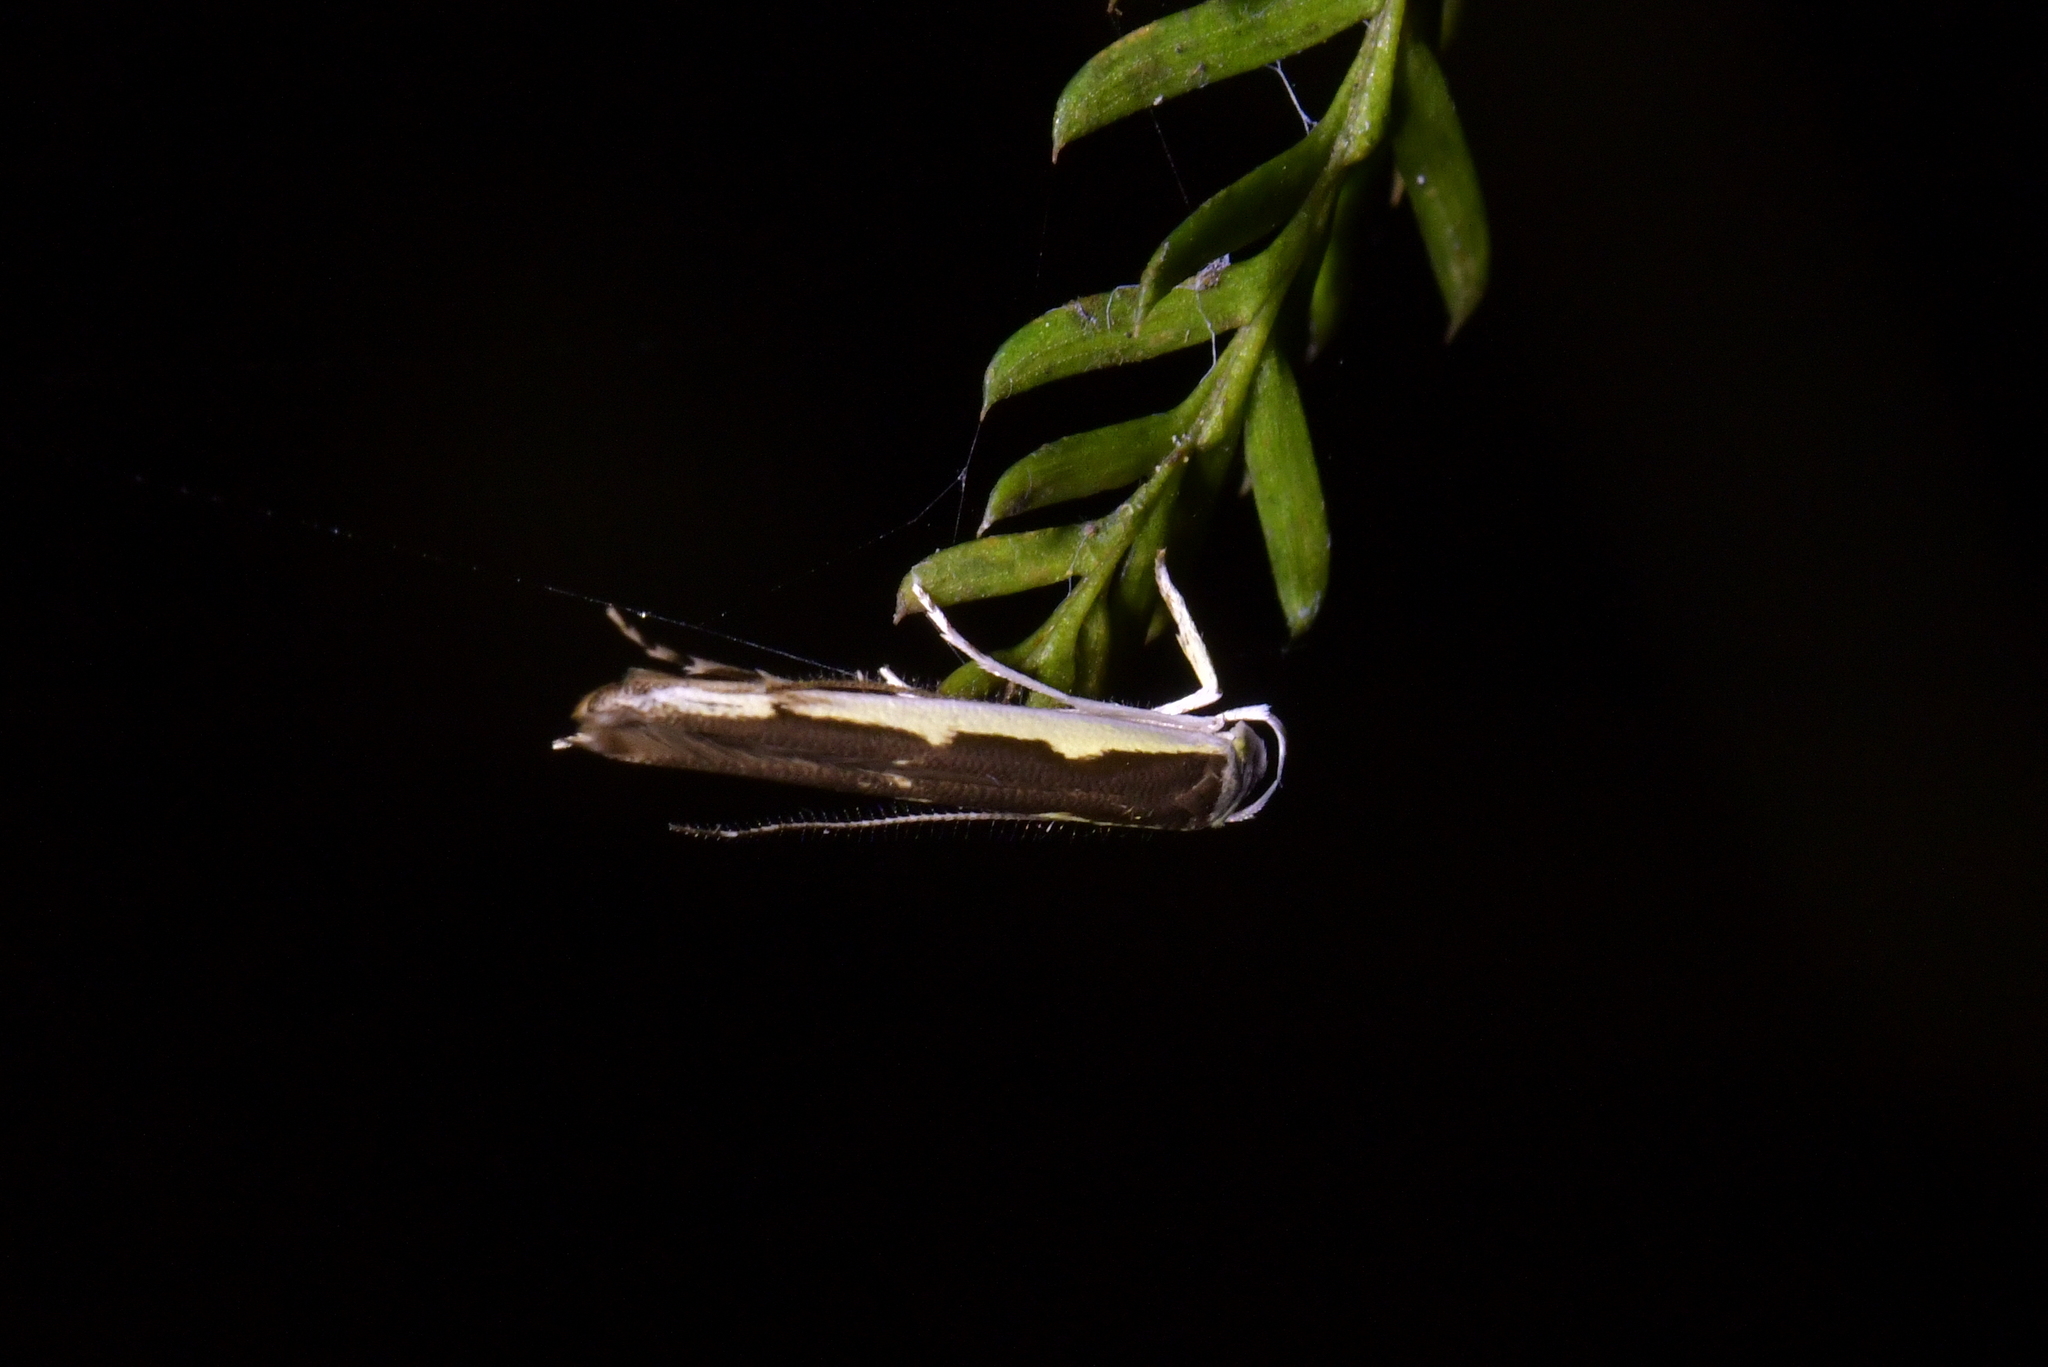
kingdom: Animalia
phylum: Arthropoda
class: Insecta
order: Lepidoptera
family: Roeslerstammiidae
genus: Vanicela
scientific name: Vanicela disjunctella
